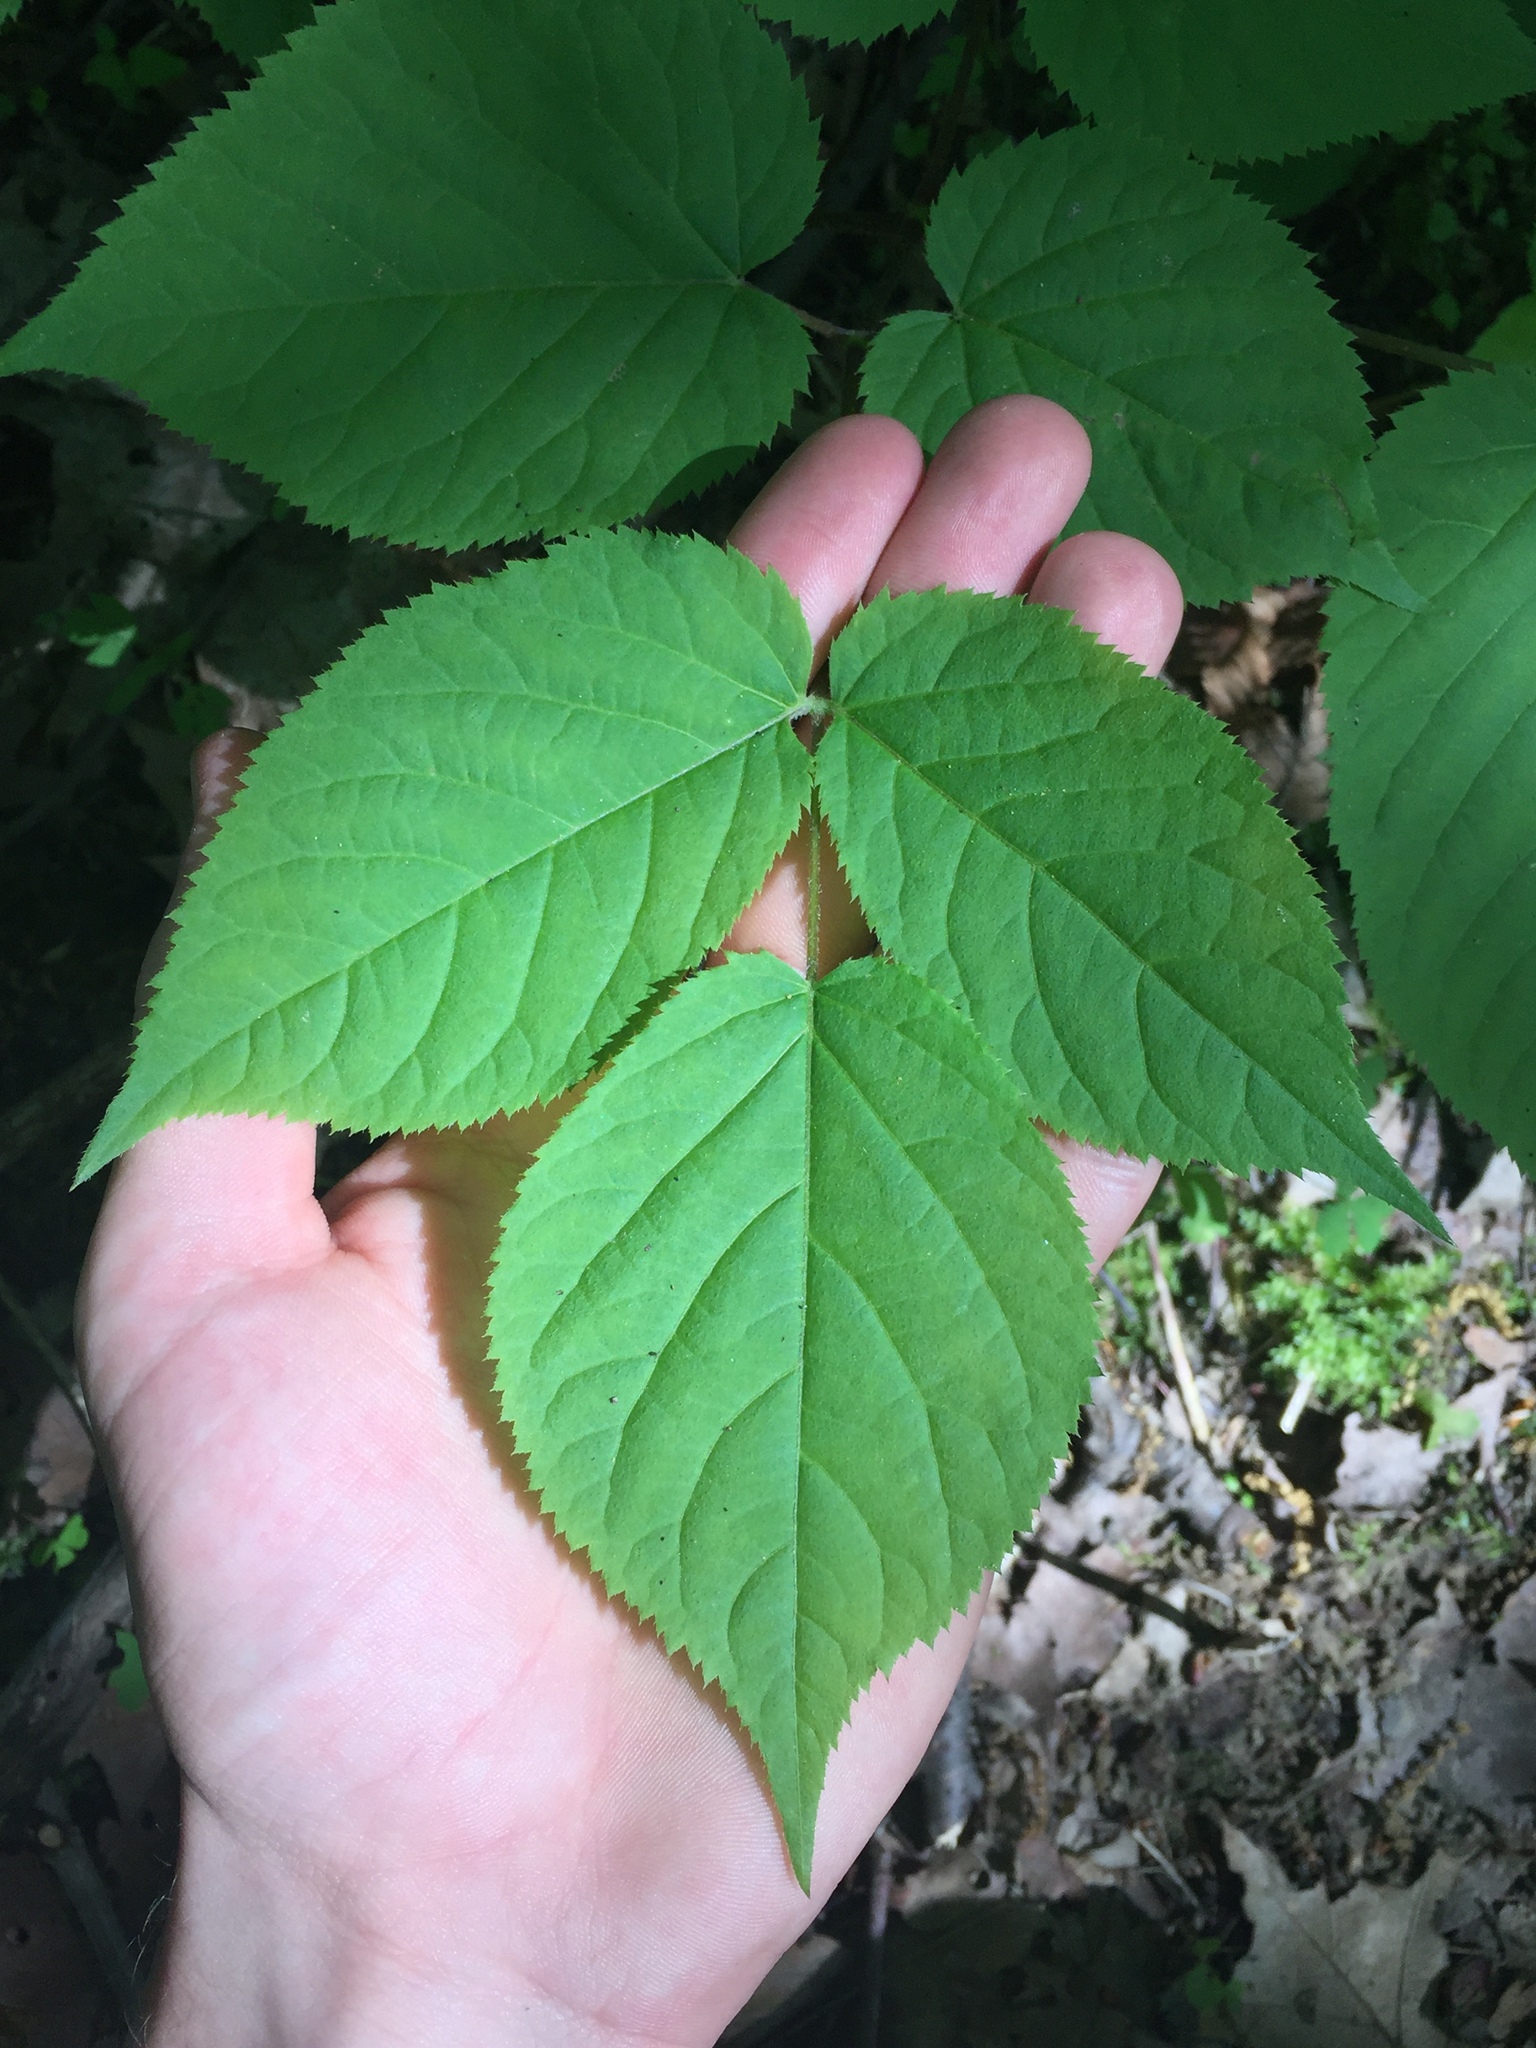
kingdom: Plantae
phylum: Tracheophyta
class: Magnoliopsida
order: Apiales
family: Araliaceae
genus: Aralia
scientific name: Aralia racemosa
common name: American-spikenard
